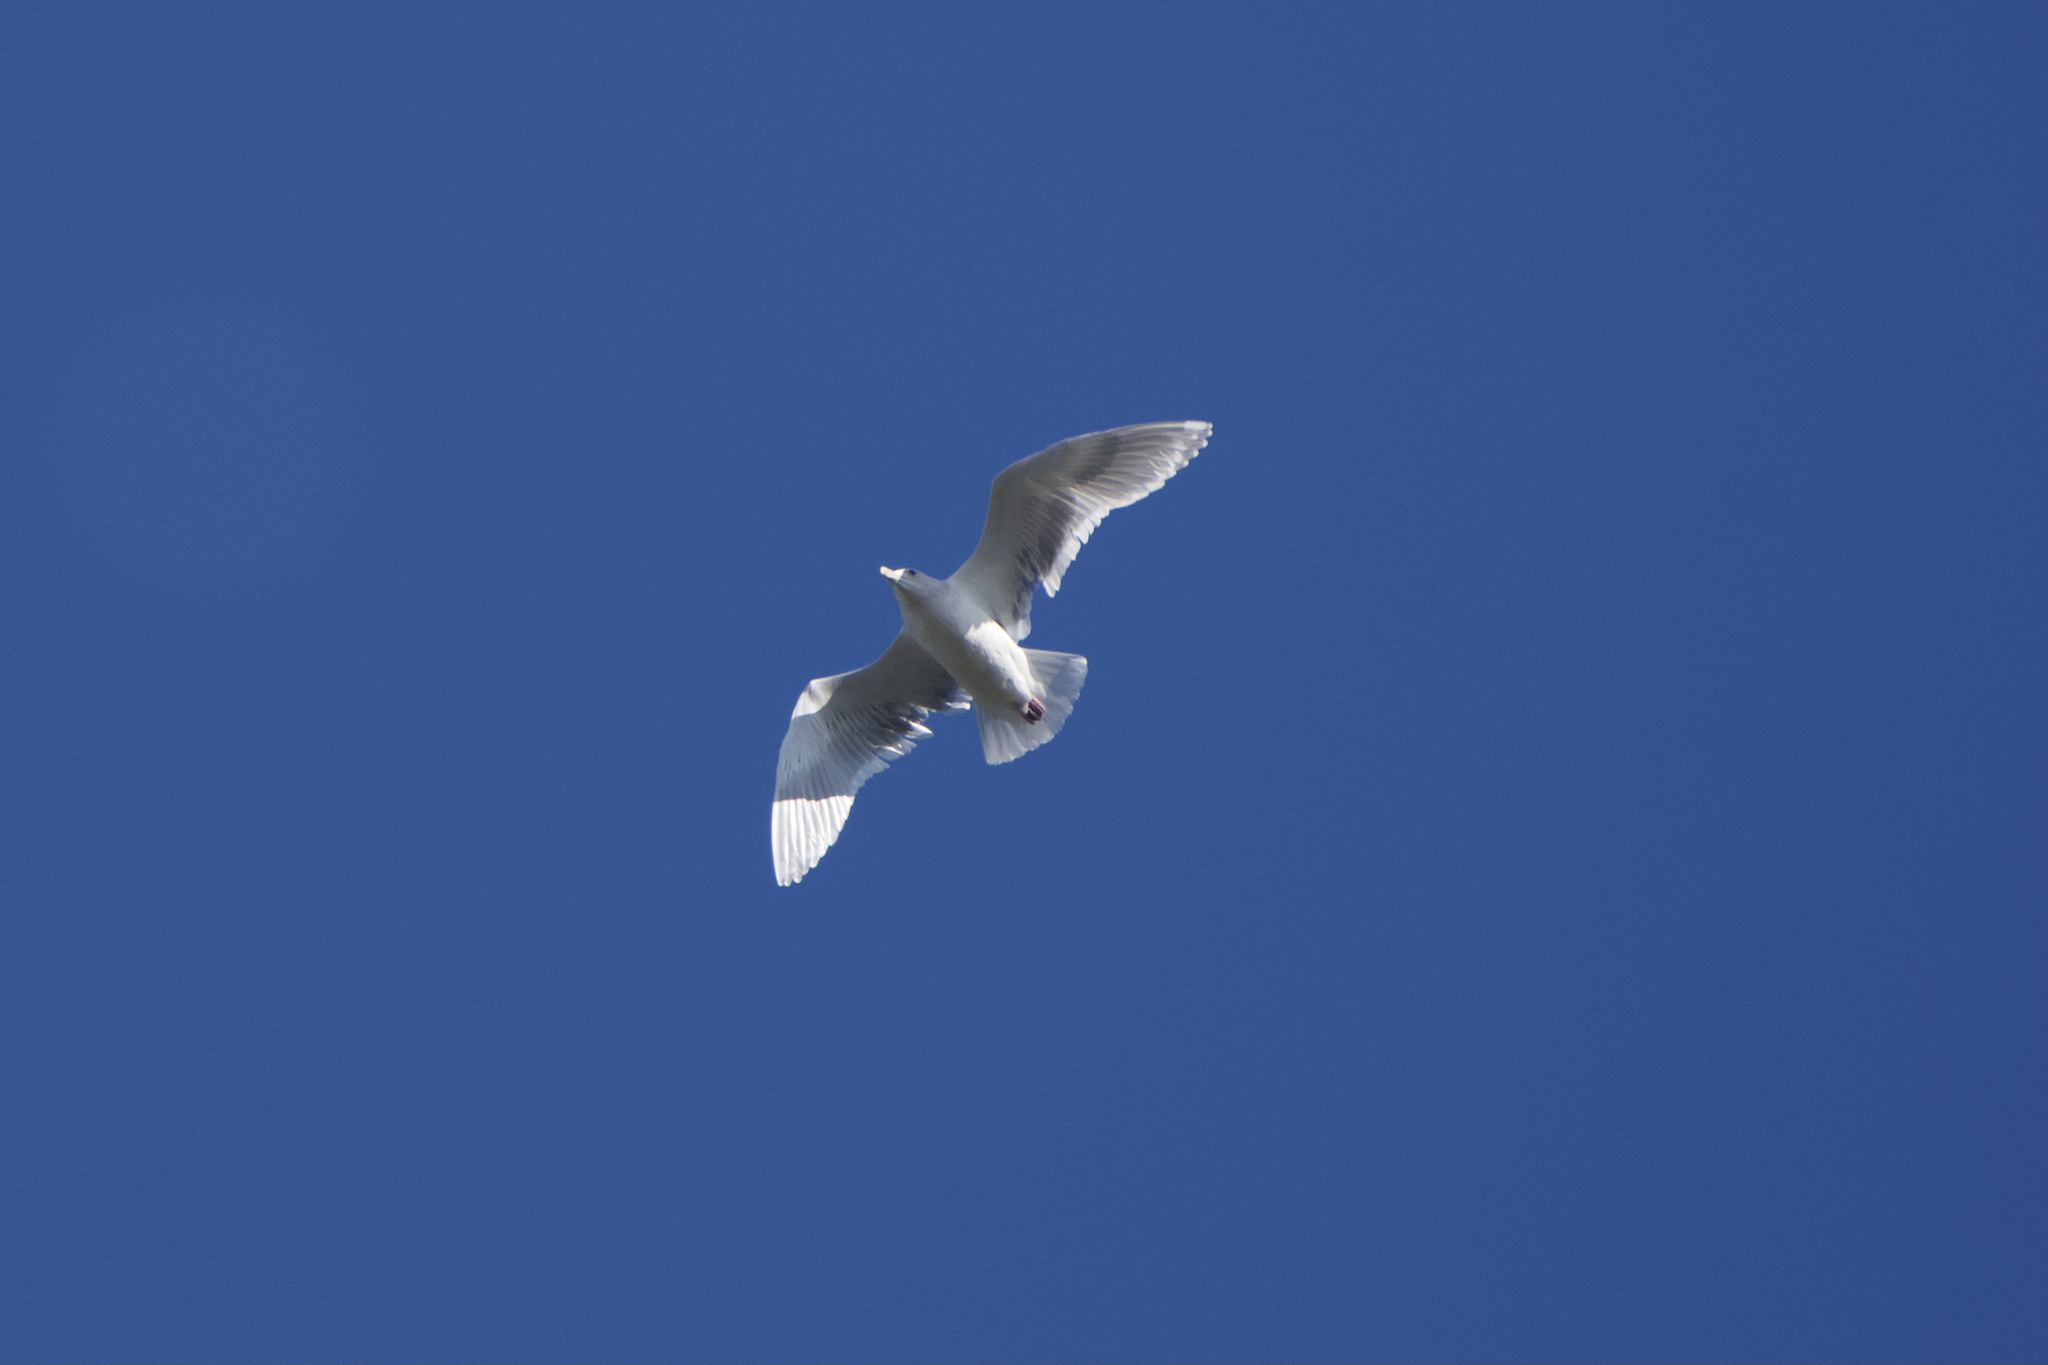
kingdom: Animalia
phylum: Chordata
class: Aves
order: Charadriiformes
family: Laridae
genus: Larus
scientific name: Larus glaucescens
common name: Glaucous-winged gull
